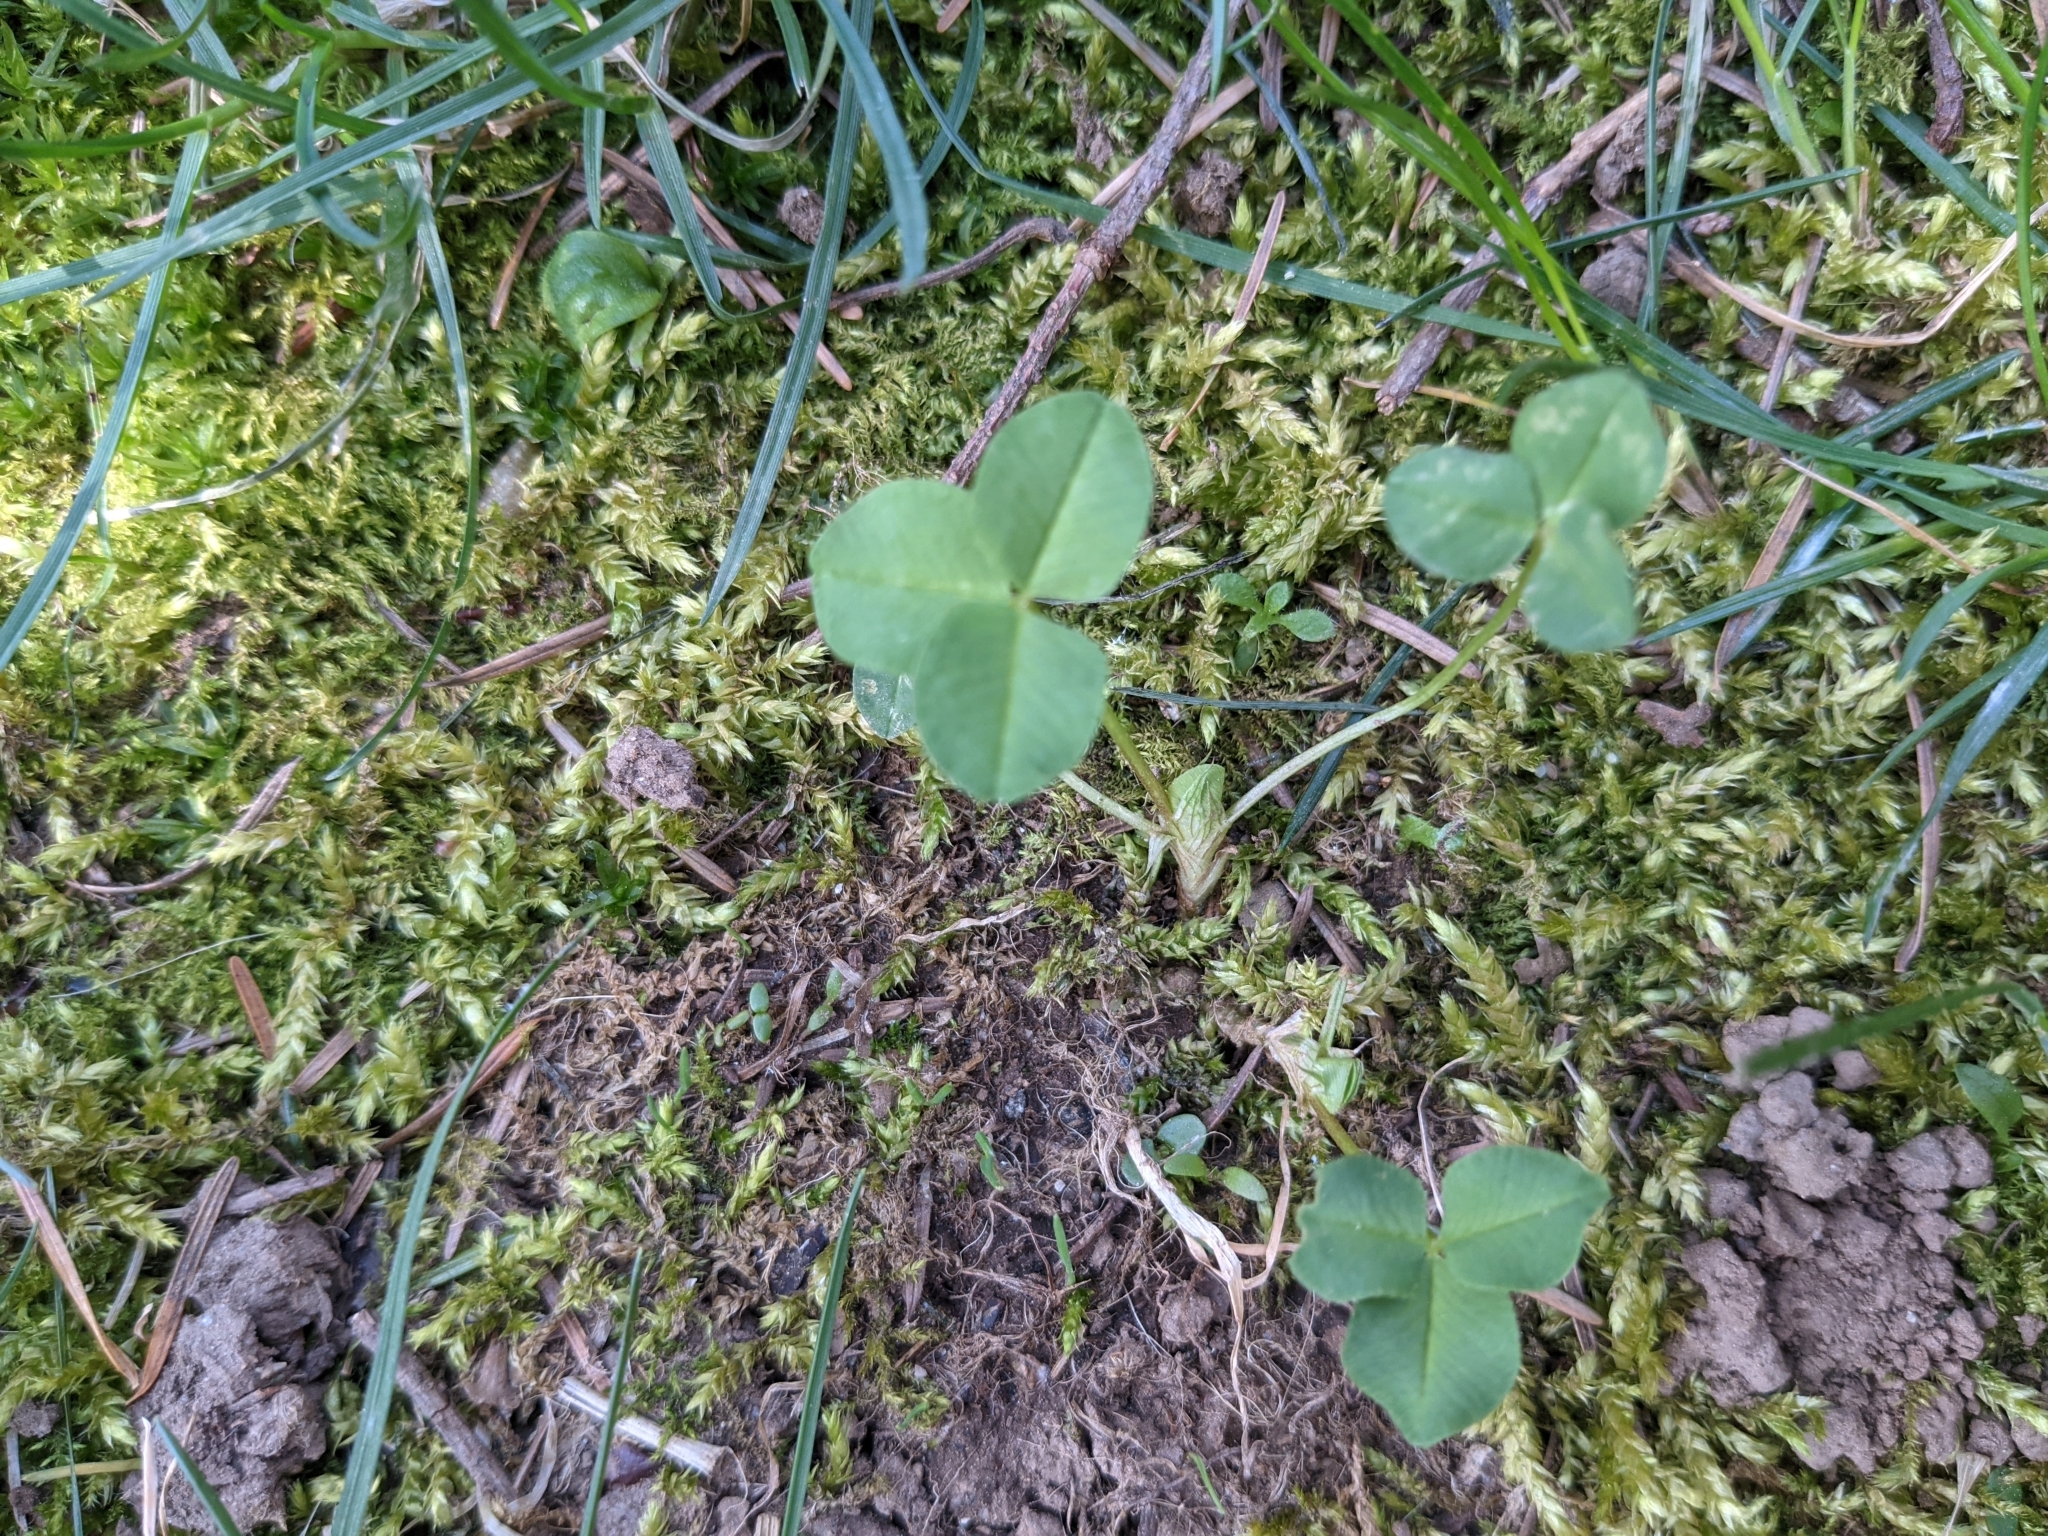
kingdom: Plantae
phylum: Tracheophyta
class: Magnoliopsida
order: Fabales
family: Fabaceae
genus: Trifolium
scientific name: Trifolium repens
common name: White clover
